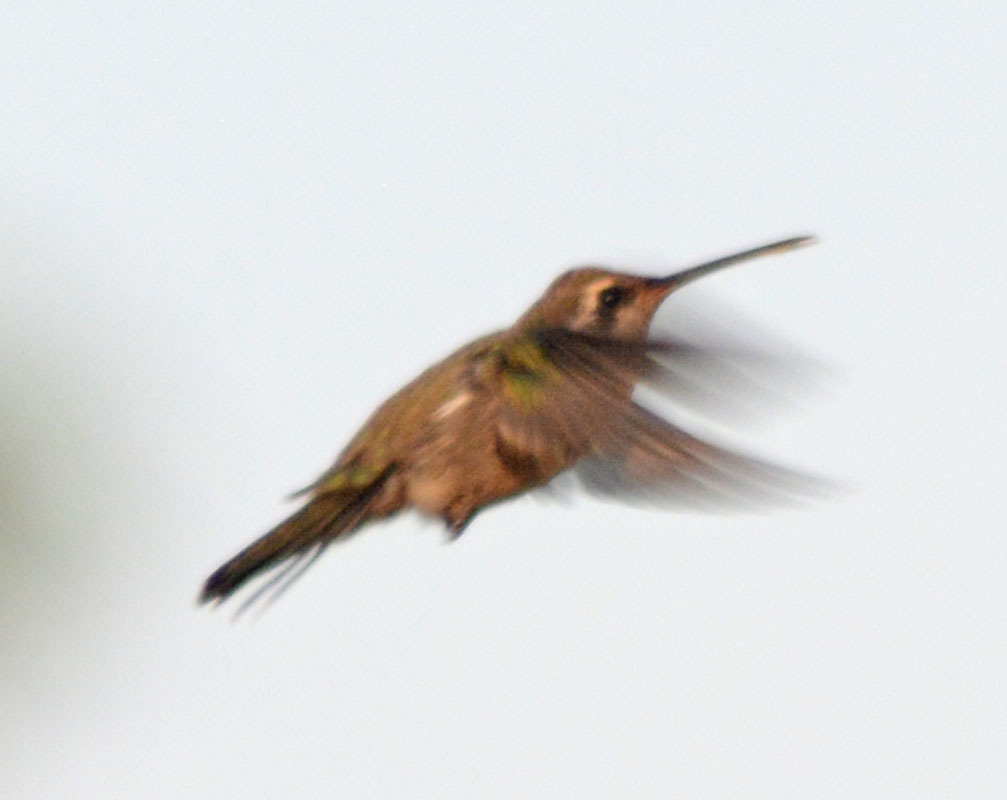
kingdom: Animalia
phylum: Chordata
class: Aves
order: Apodiformes
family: Trochilidae
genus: Cynanthus
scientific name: Cynanthus latirostris
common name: Broad-billed hummingbird
